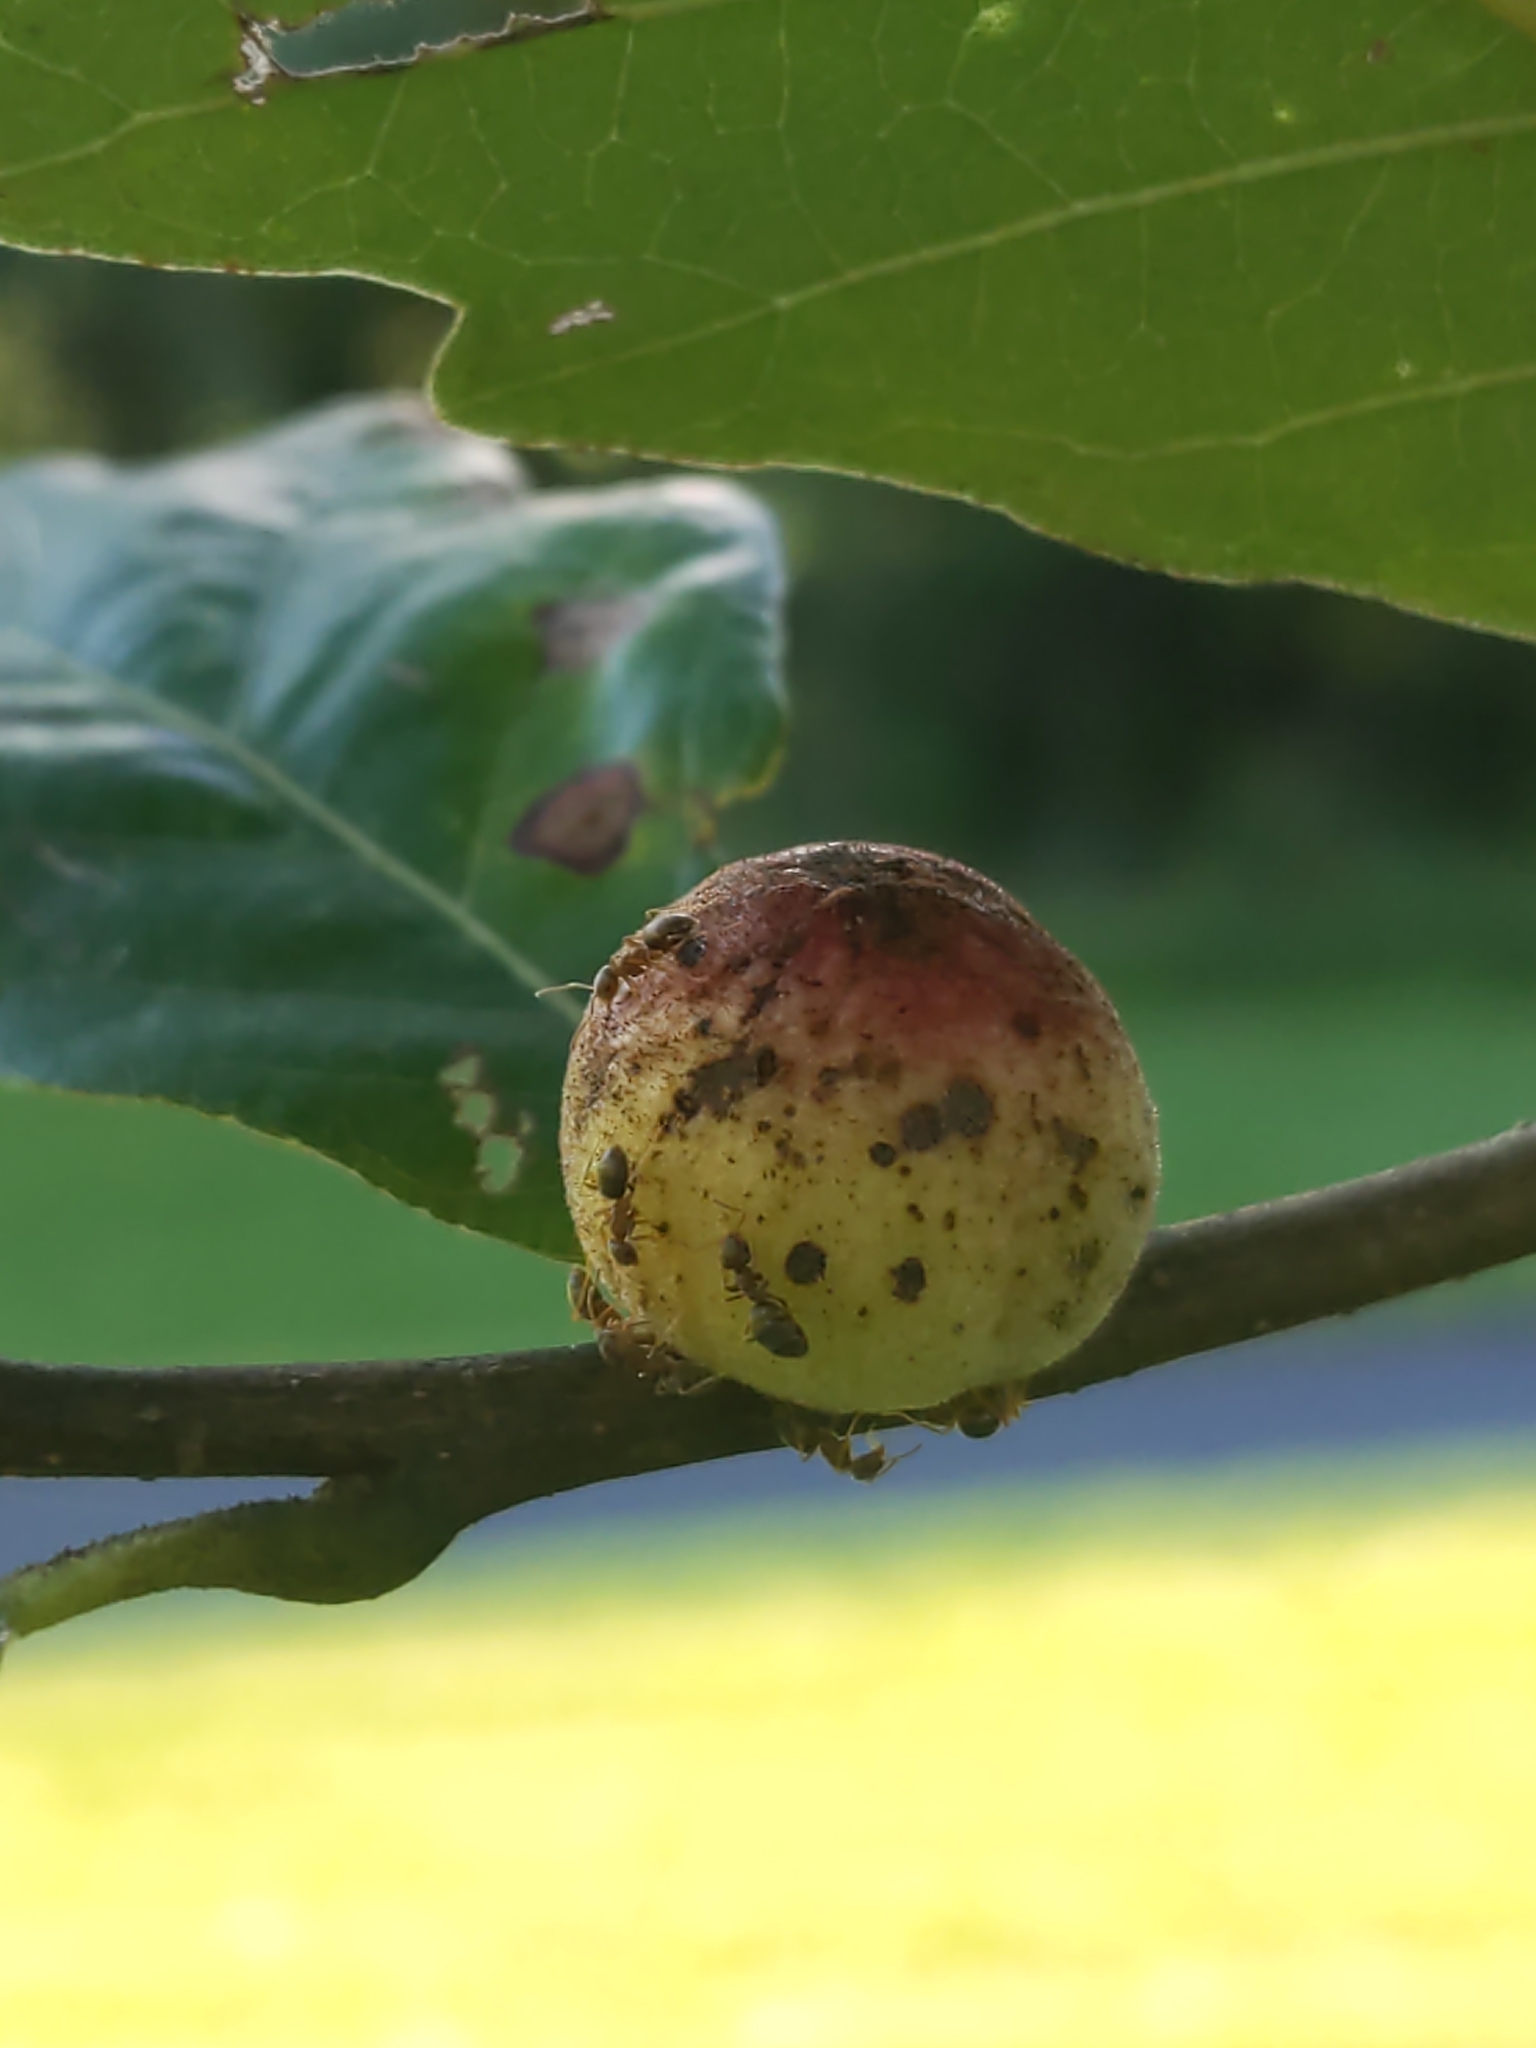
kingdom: Animalia
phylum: Arthropoda
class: Insecta
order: Hymenoptera
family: Cynipidae
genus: Disholcaspis
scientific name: Disholcaspis
